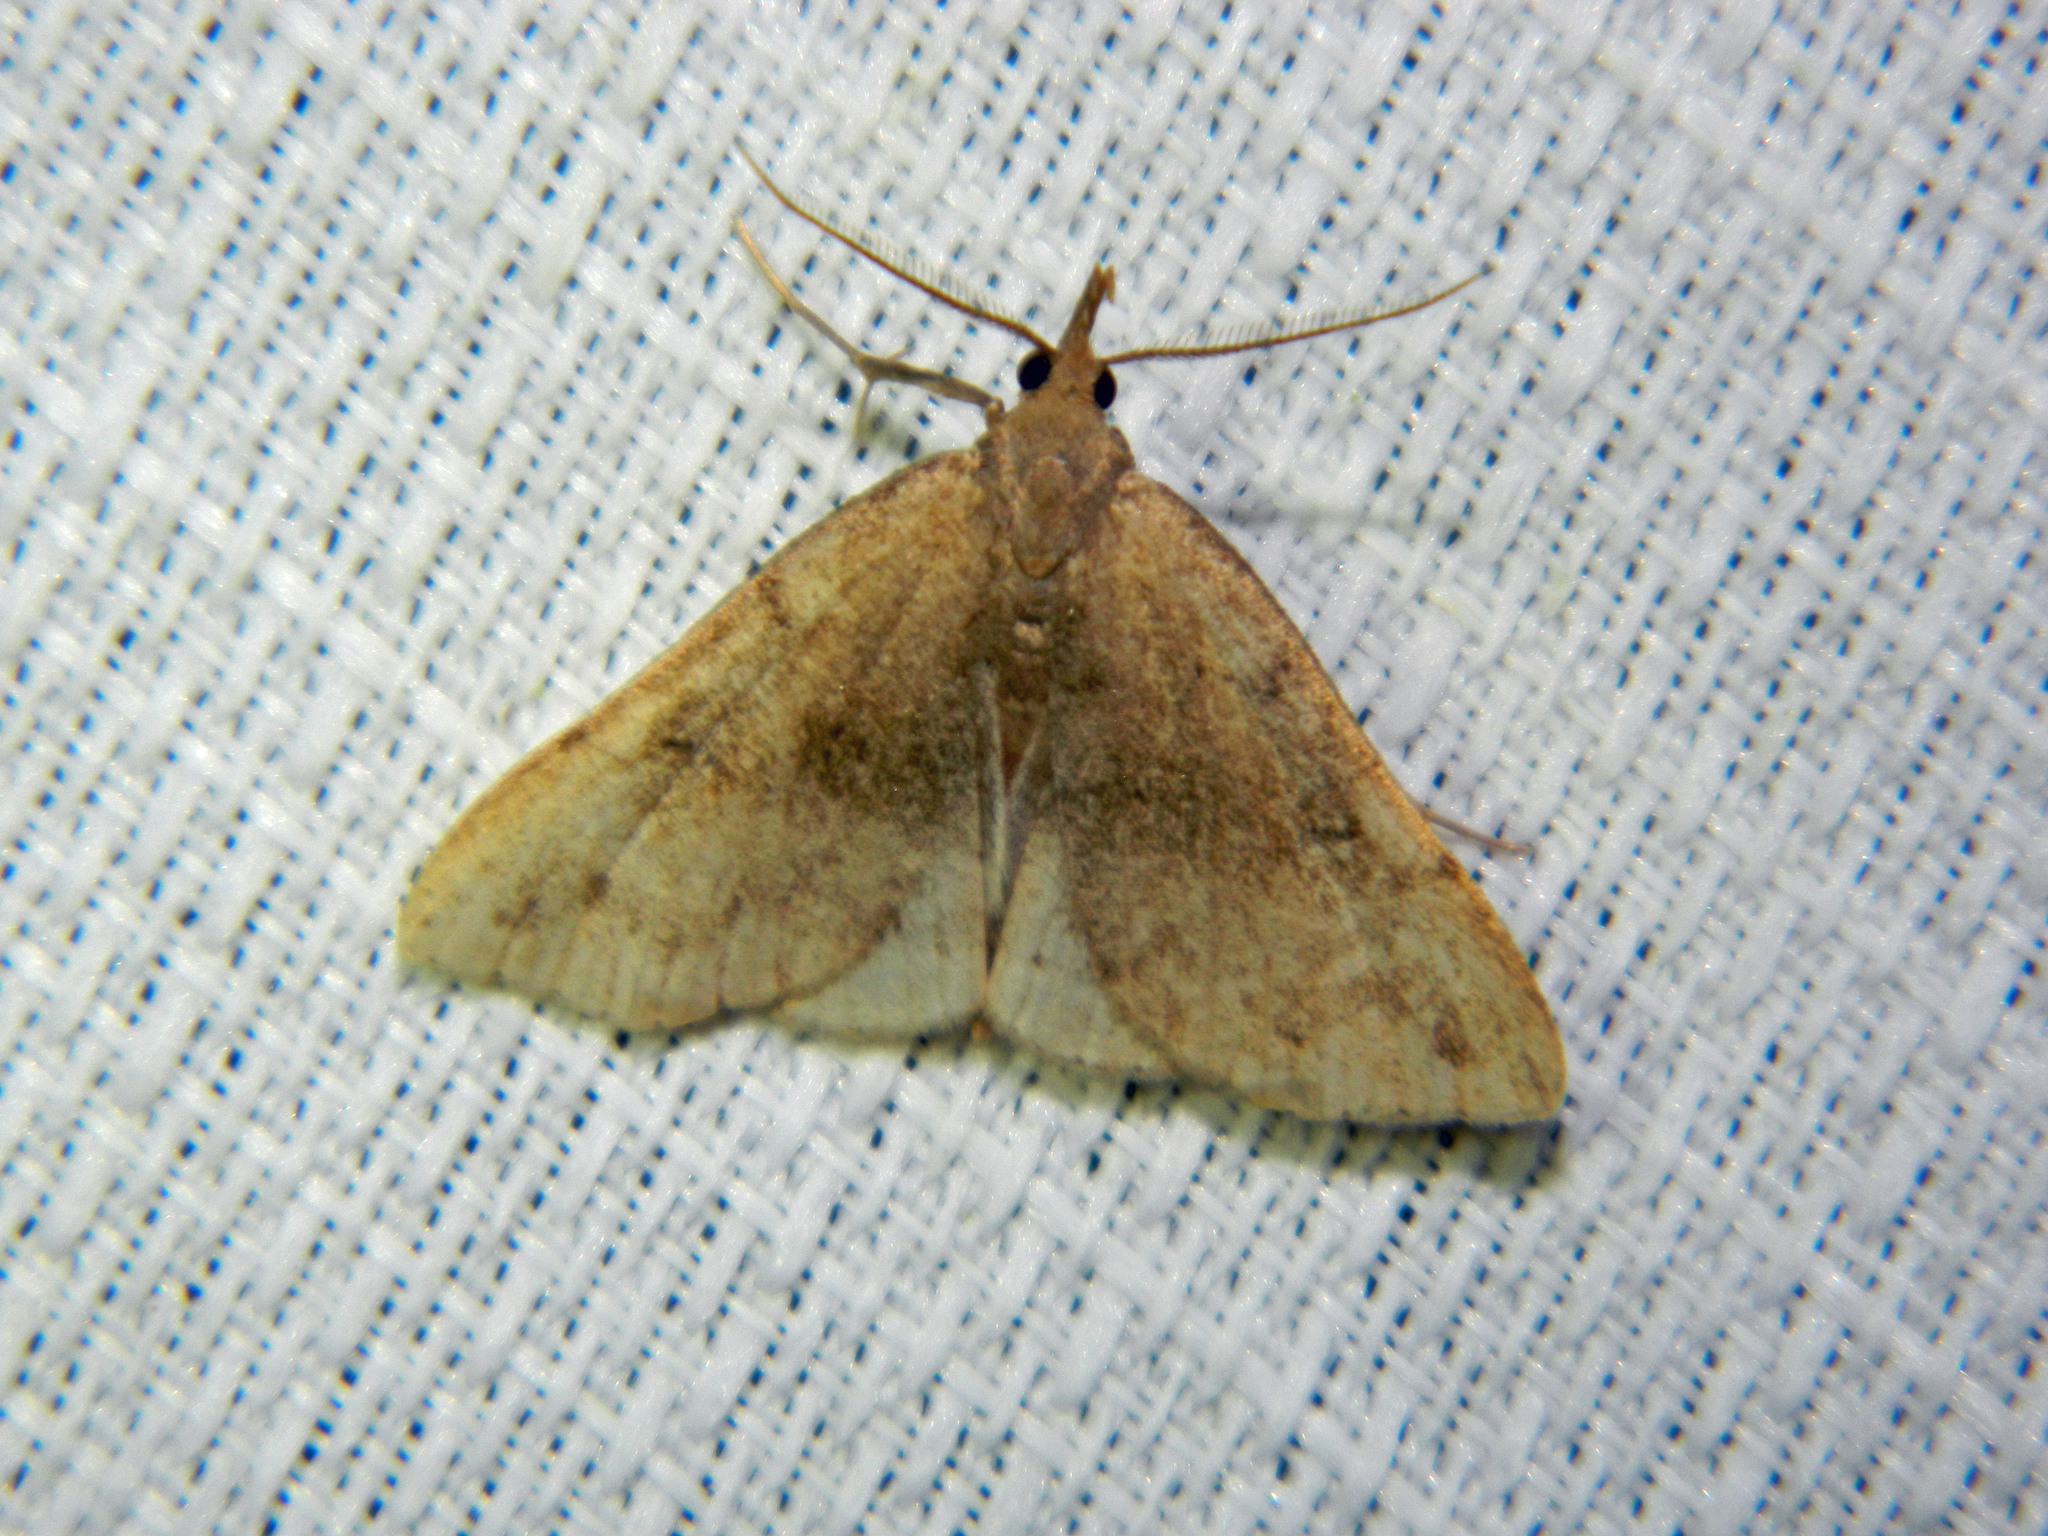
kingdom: Animalia
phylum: Arthropoda
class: Insecta
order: Lepidoptera
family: Erebidae
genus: Phalaenostola
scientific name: Phalaenostola eumelusalis
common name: Dark phalaenostola moth
